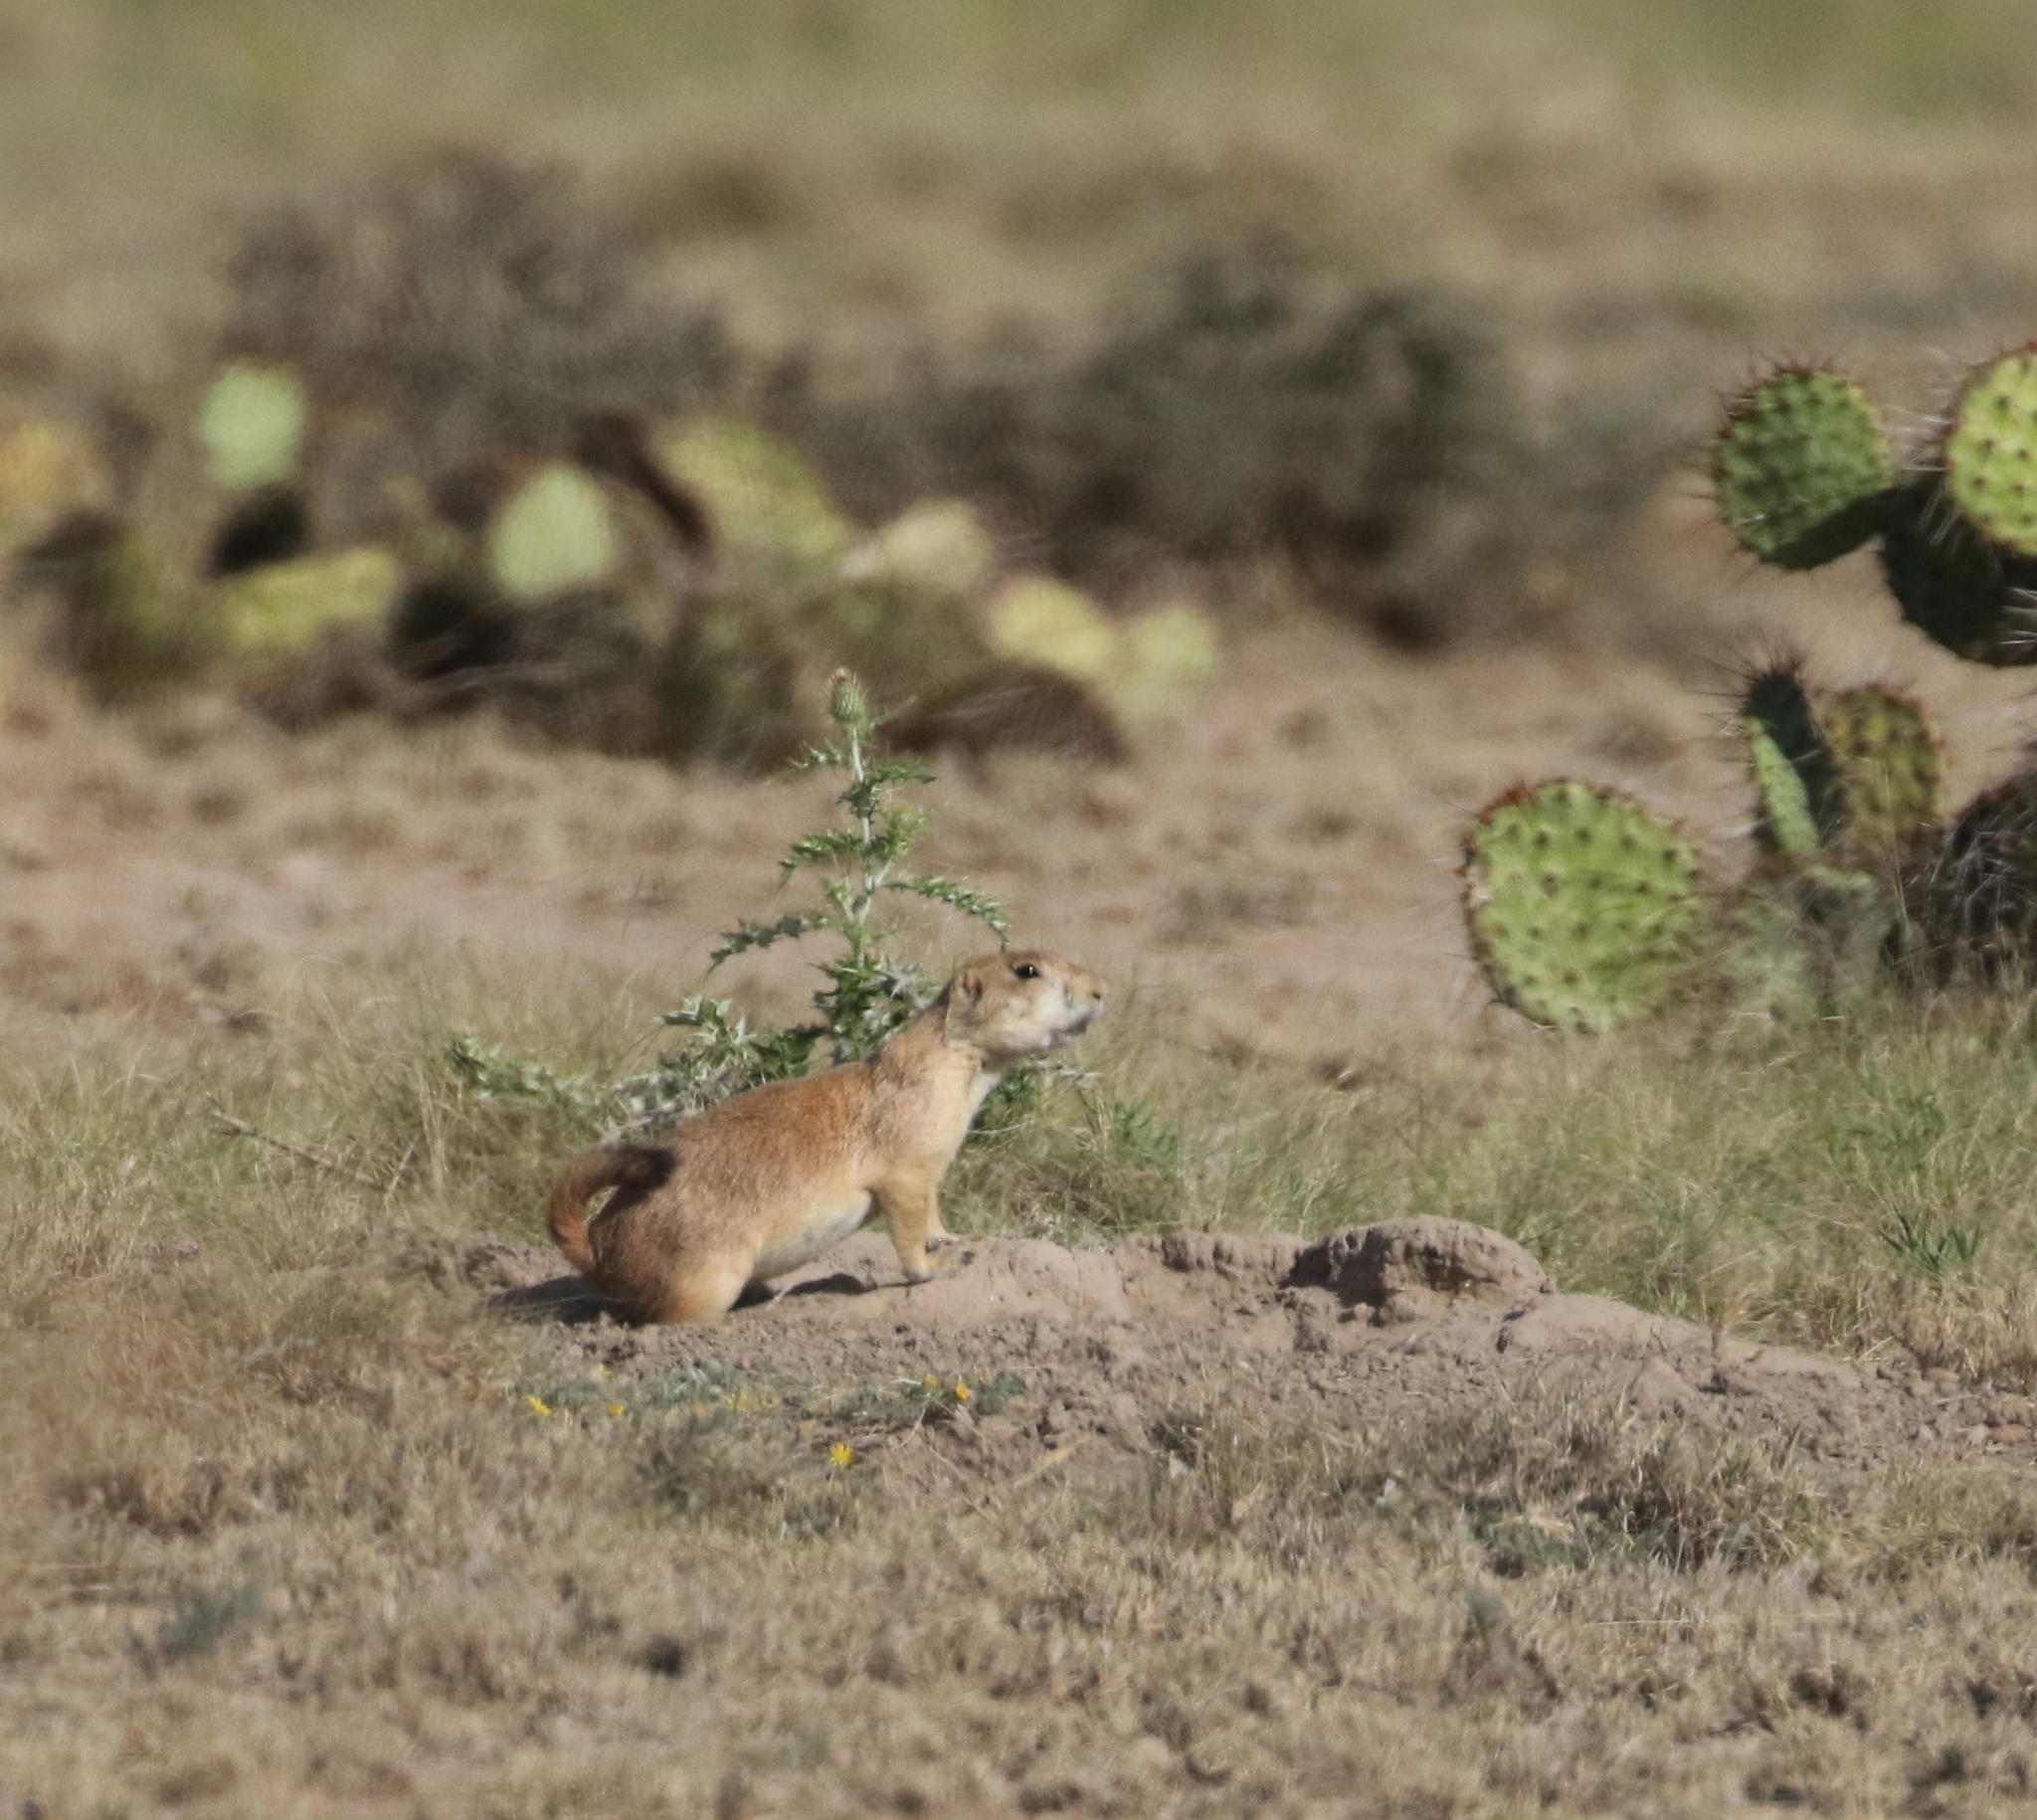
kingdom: Animalia
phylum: Chordata
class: Mammalia
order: Rodentia
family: Sciuridae
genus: Cynomys
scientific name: Cynomys ludovicianus
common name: Black-tailed prairie dog
